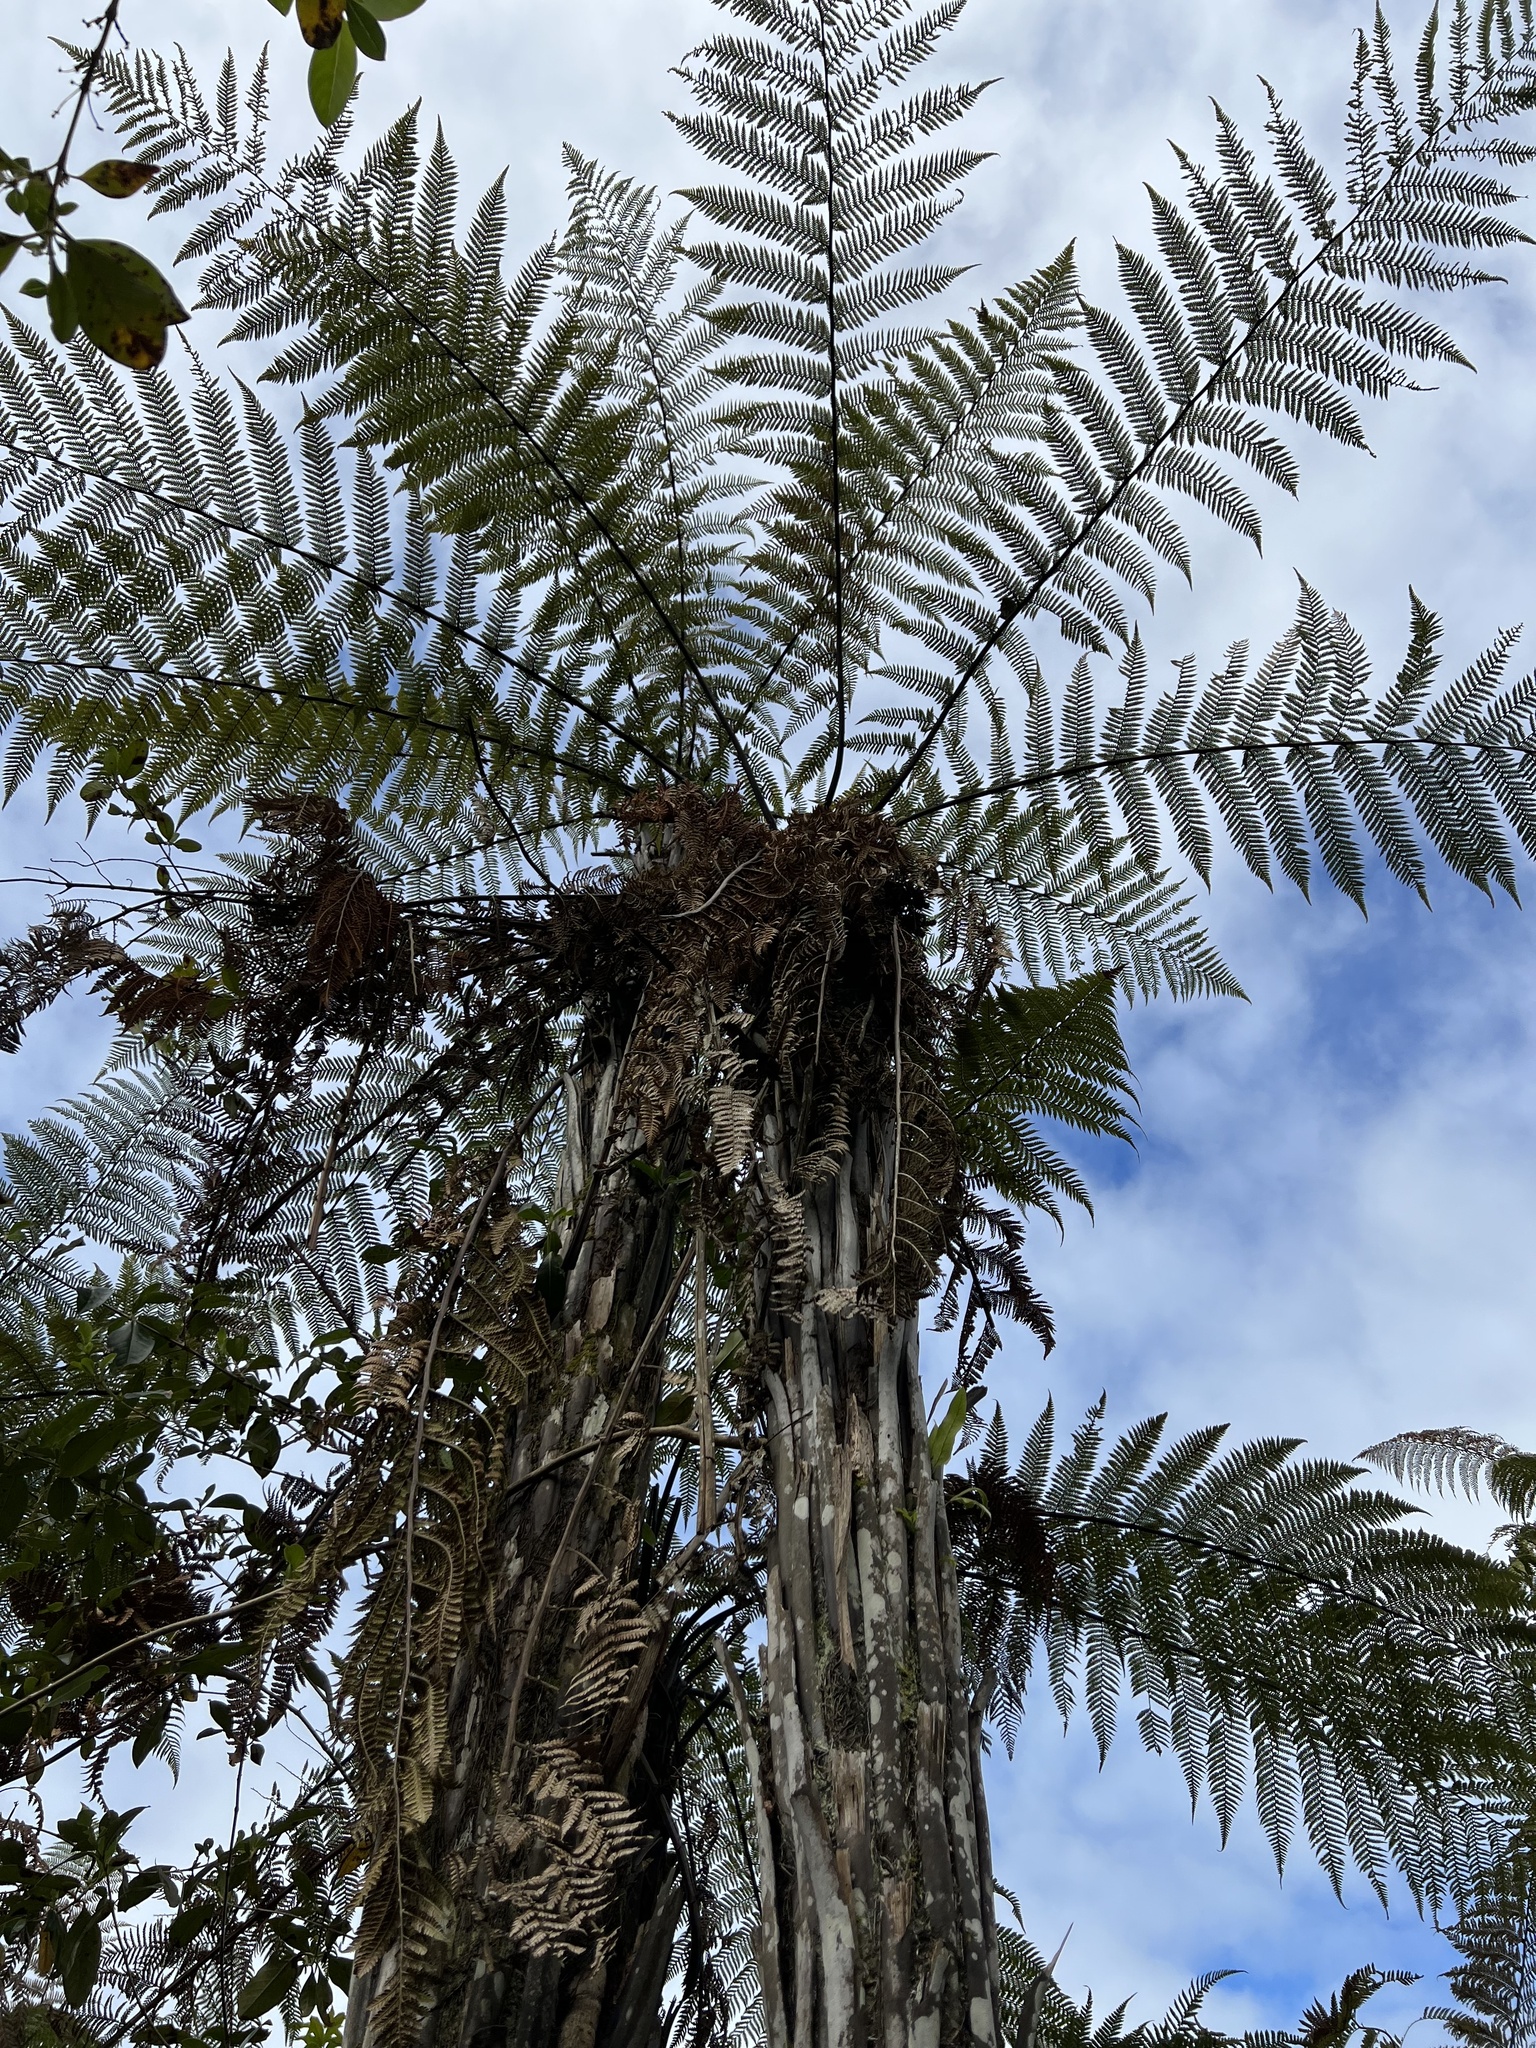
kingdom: Plantae
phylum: Tracheophyta
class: Polypodiopsida
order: Cyatheales
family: Dicksoniaceae
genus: Dicksonia
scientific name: Dicksonia squarrosa
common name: Hard treefern
